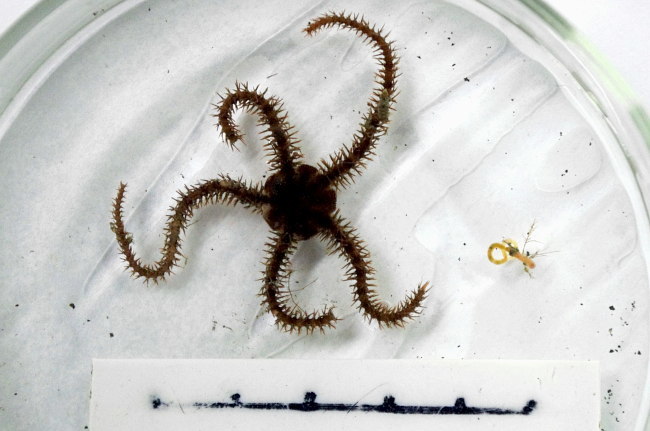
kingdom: Animalia
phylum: Echinodermata
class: Ophiuroidea
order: Ophiacanthida
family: Ophiacanthidae
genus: Ophiacantha
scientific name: Ophiacantha bidentata
